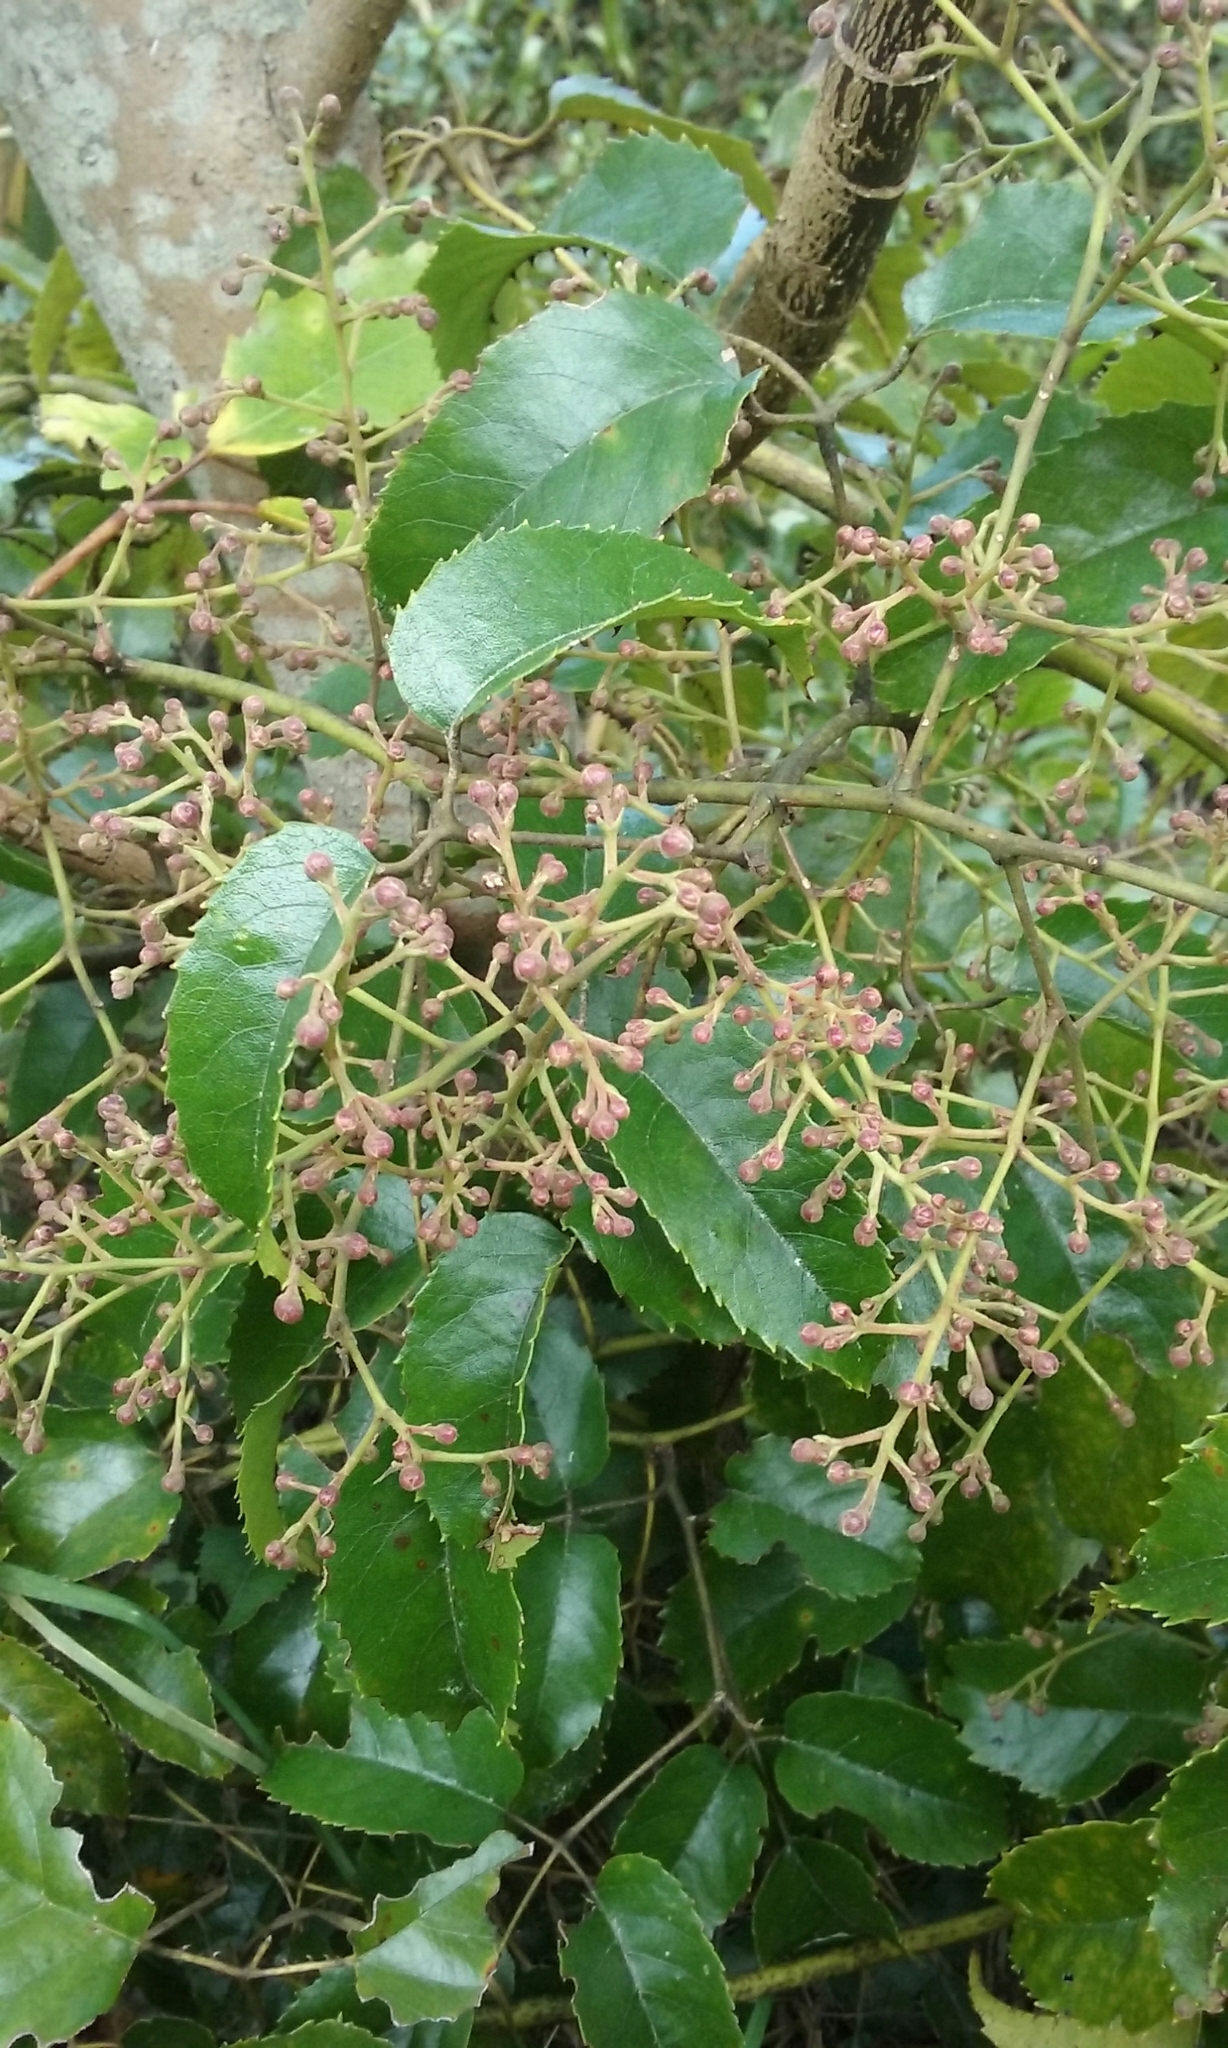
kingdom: Plantae
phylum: Tracheophyta
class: Magnoliopsida
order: Rosales
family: Rosaceae
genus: Rubus
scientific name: Rubus cissoides
